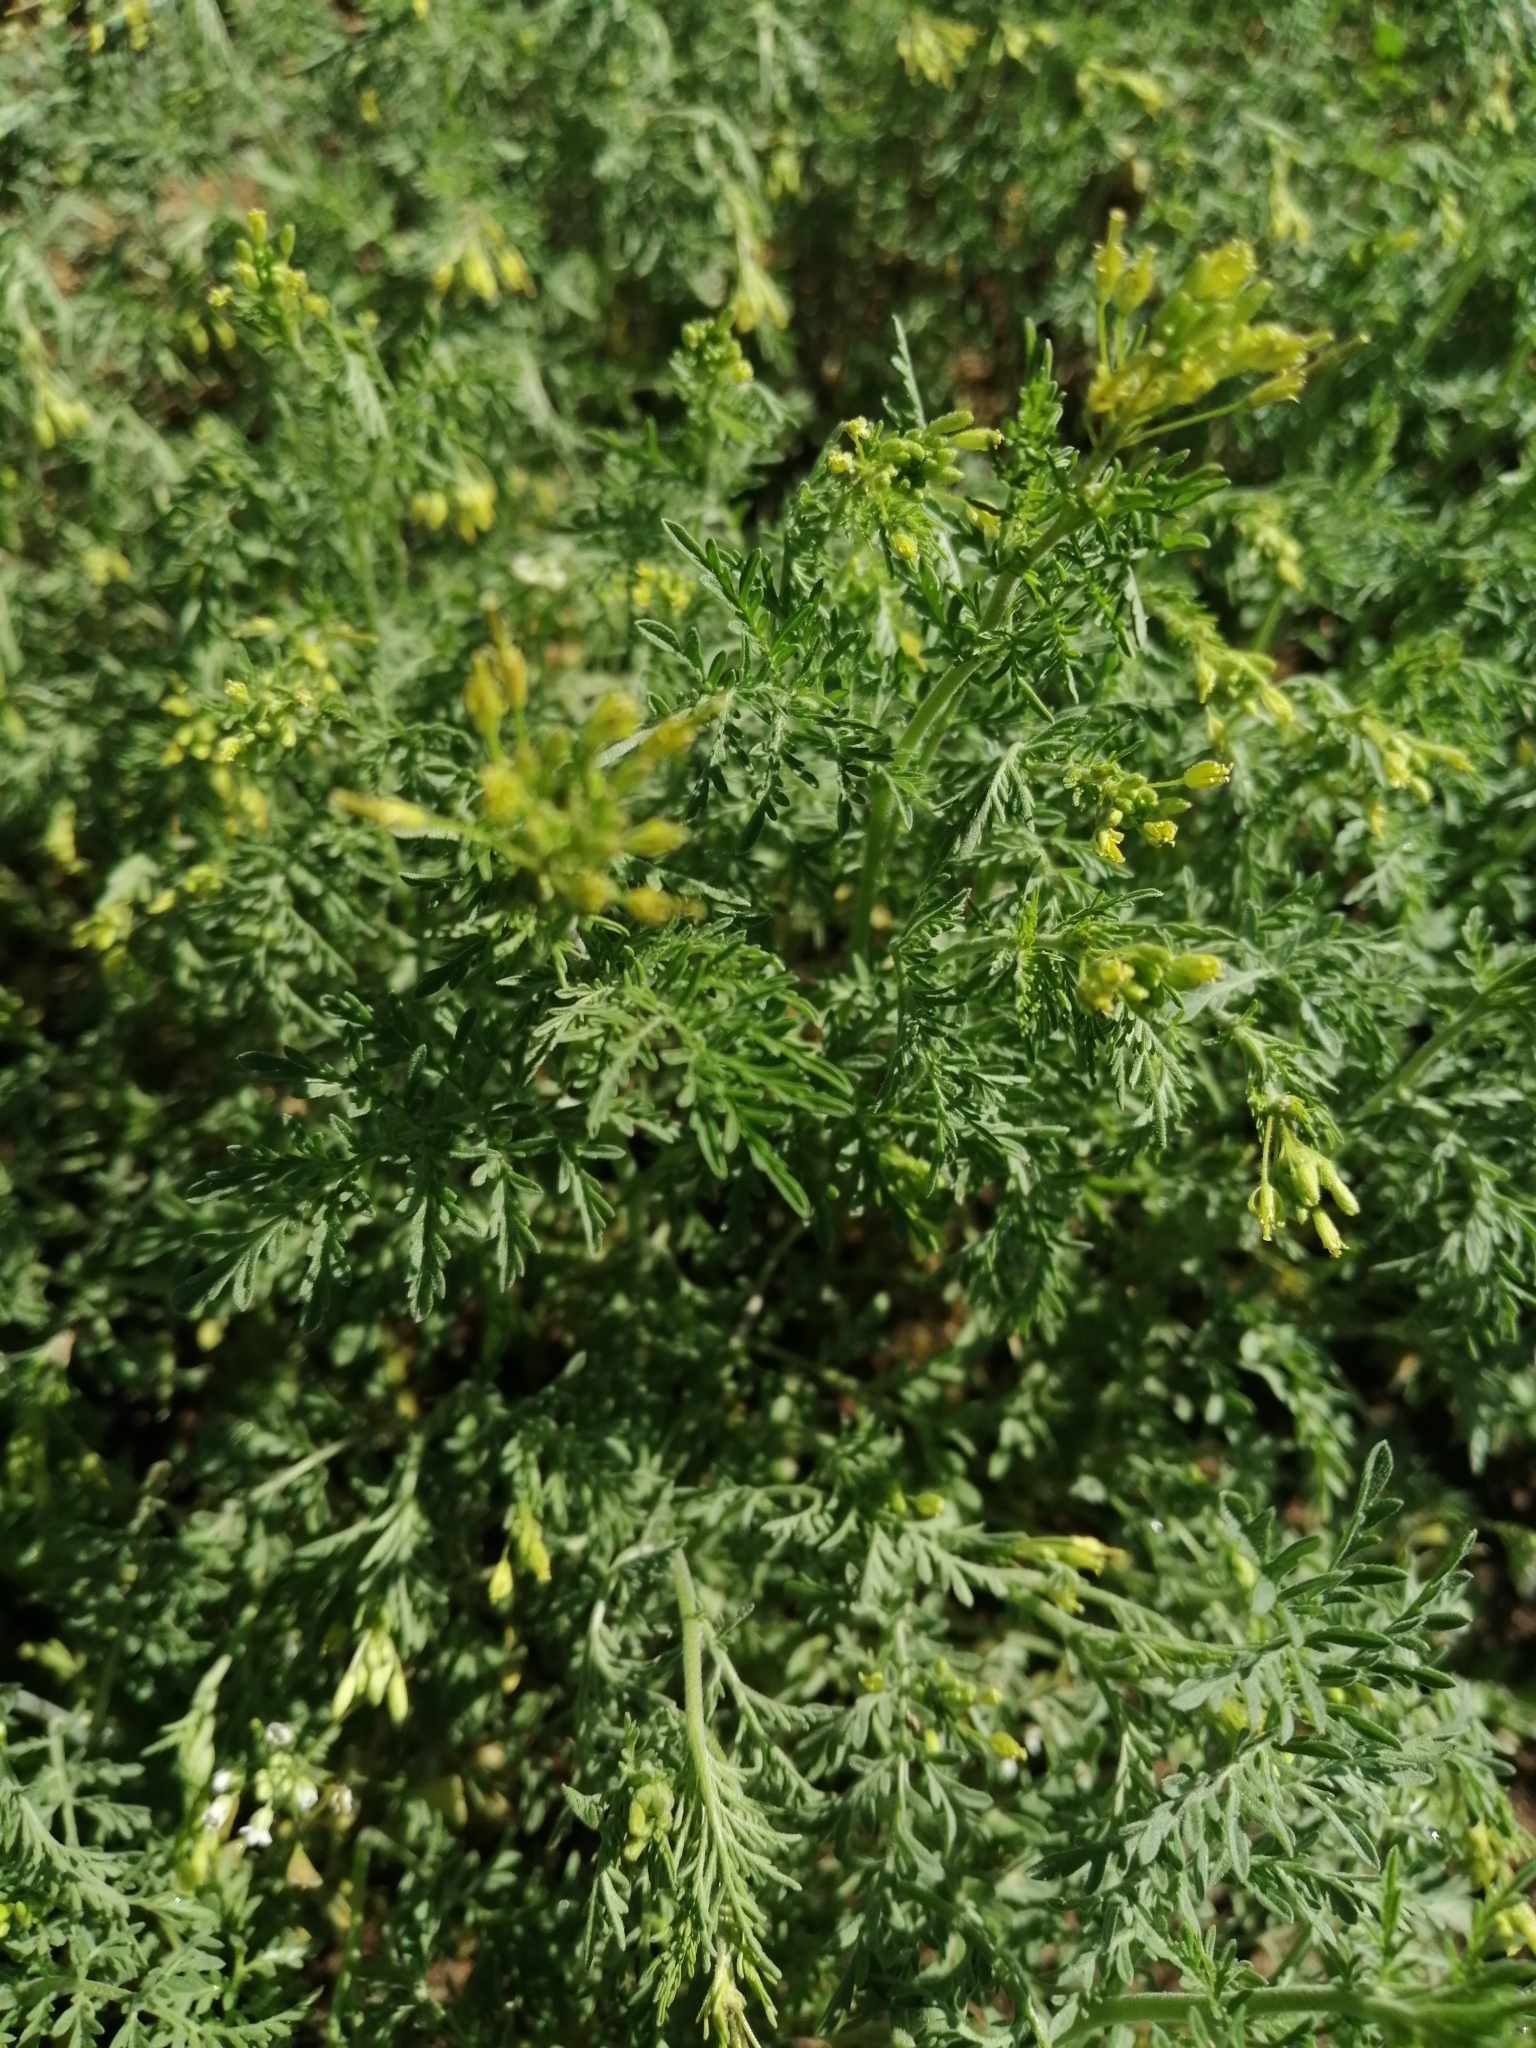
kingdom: Plantae
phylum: Tracheophyta
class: Magnoliopsida
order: Brassicales
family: Brassicaceae
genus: Descurainia
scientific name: Descurainia sophia
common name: Flixweed
